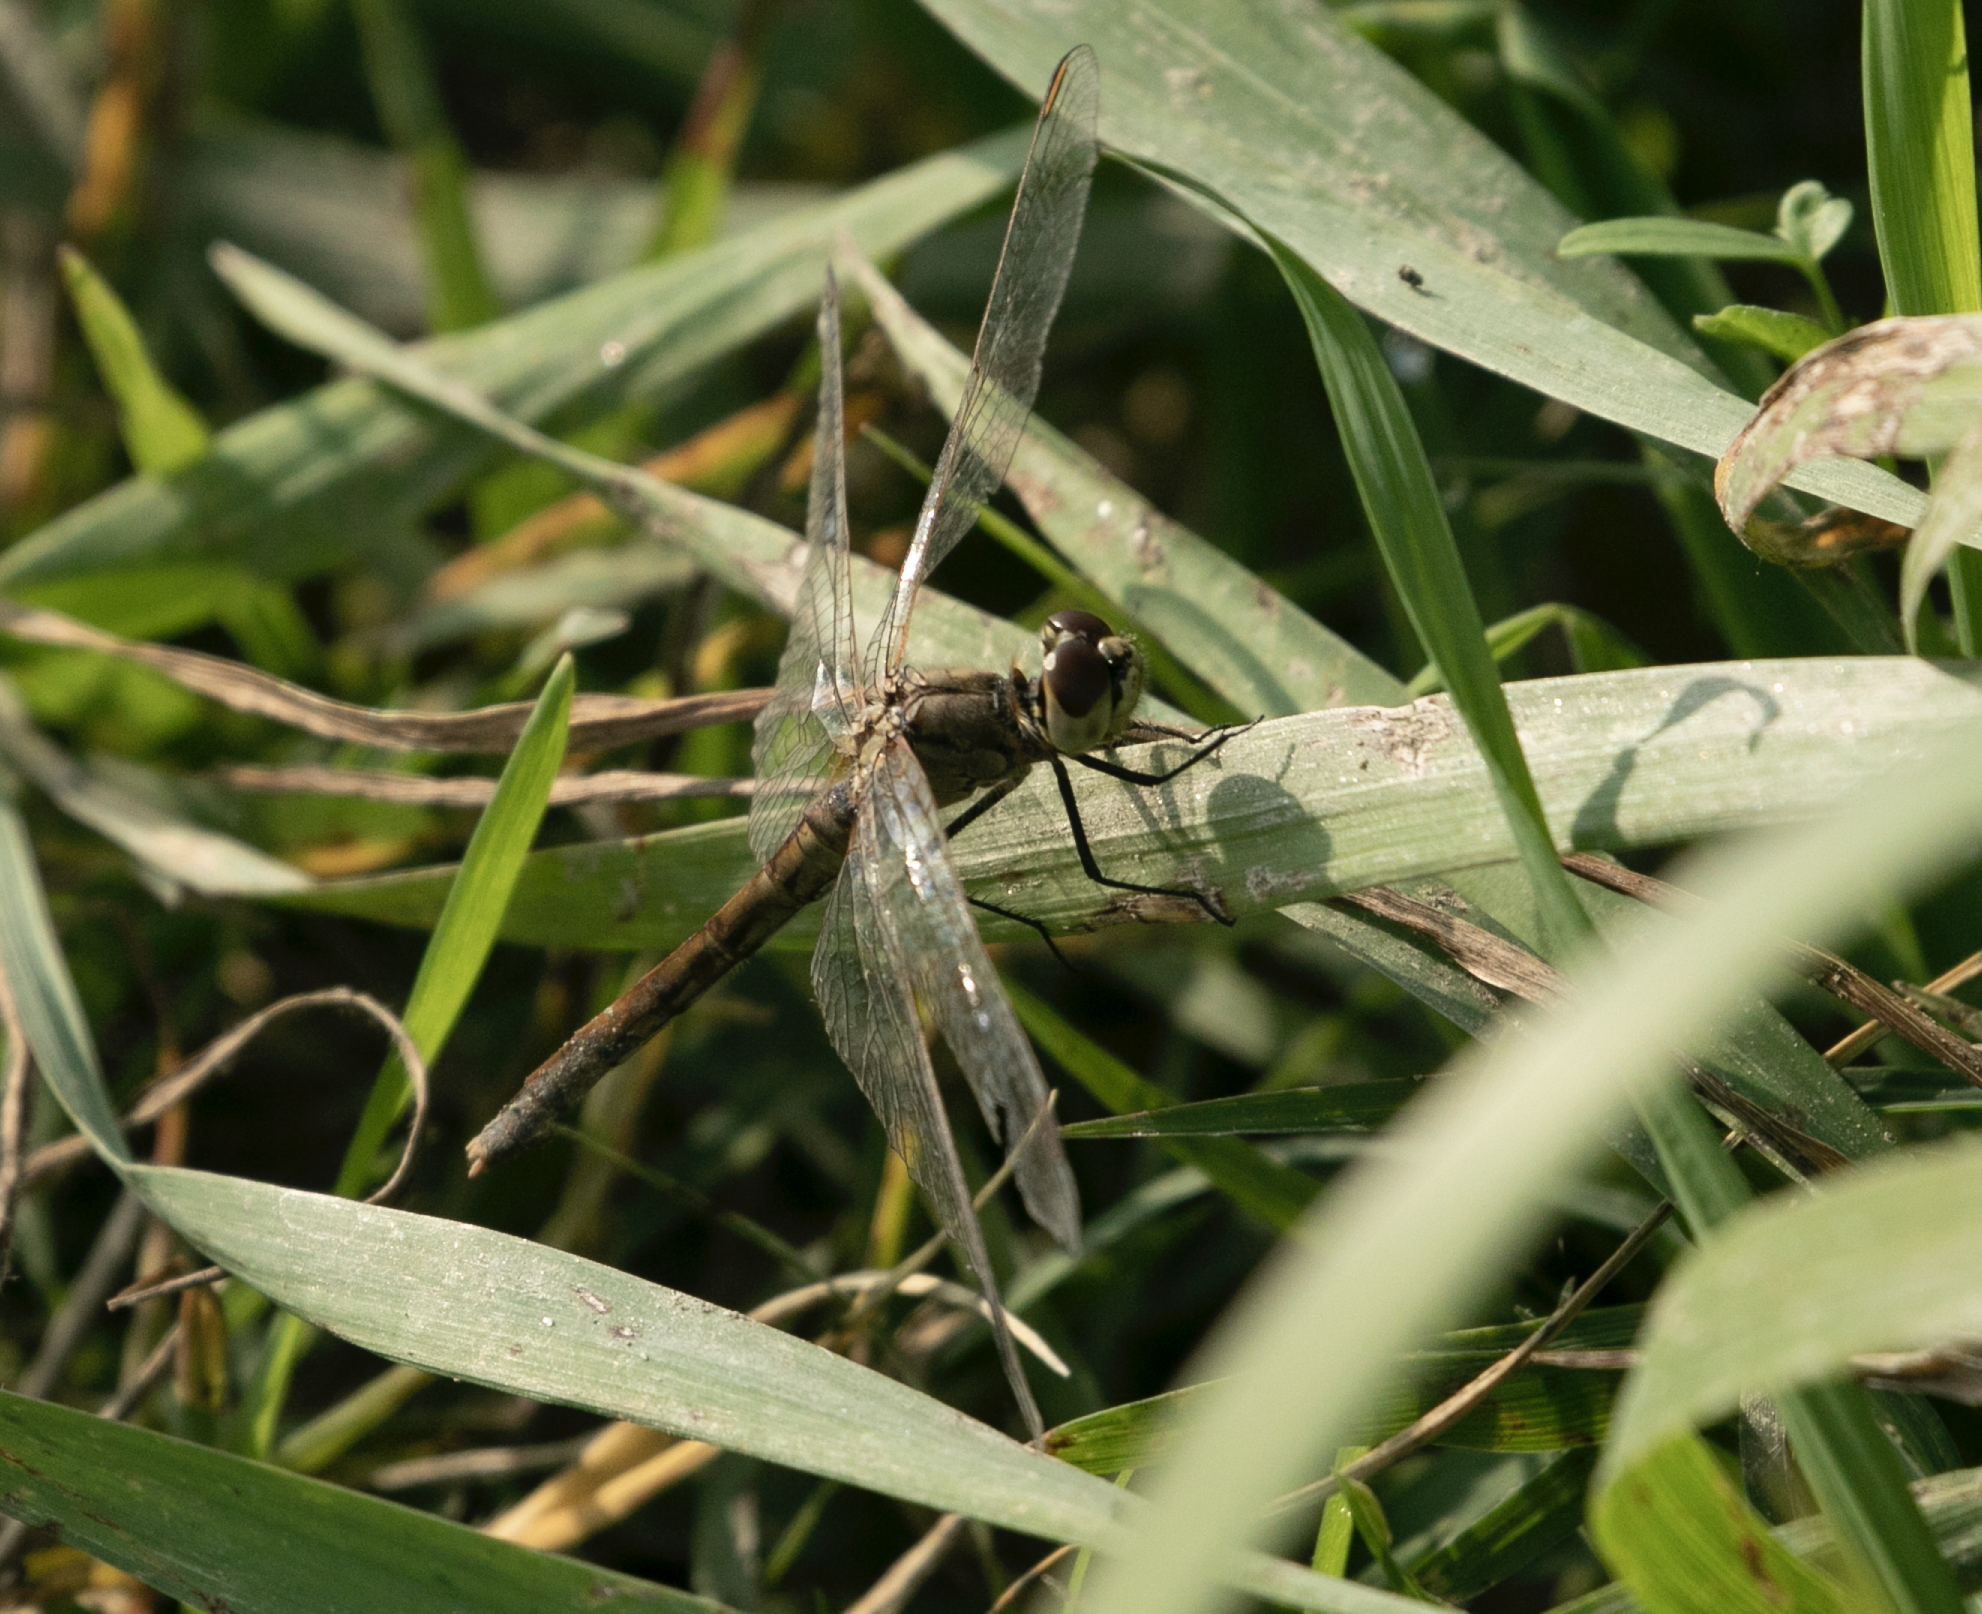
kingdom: Animalia
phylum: Arthropoda
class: Insecta
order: Odonata
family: Libellulidae
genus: Sympetrum
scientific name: Sympetrum depressiusculum
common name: Spotted darter
